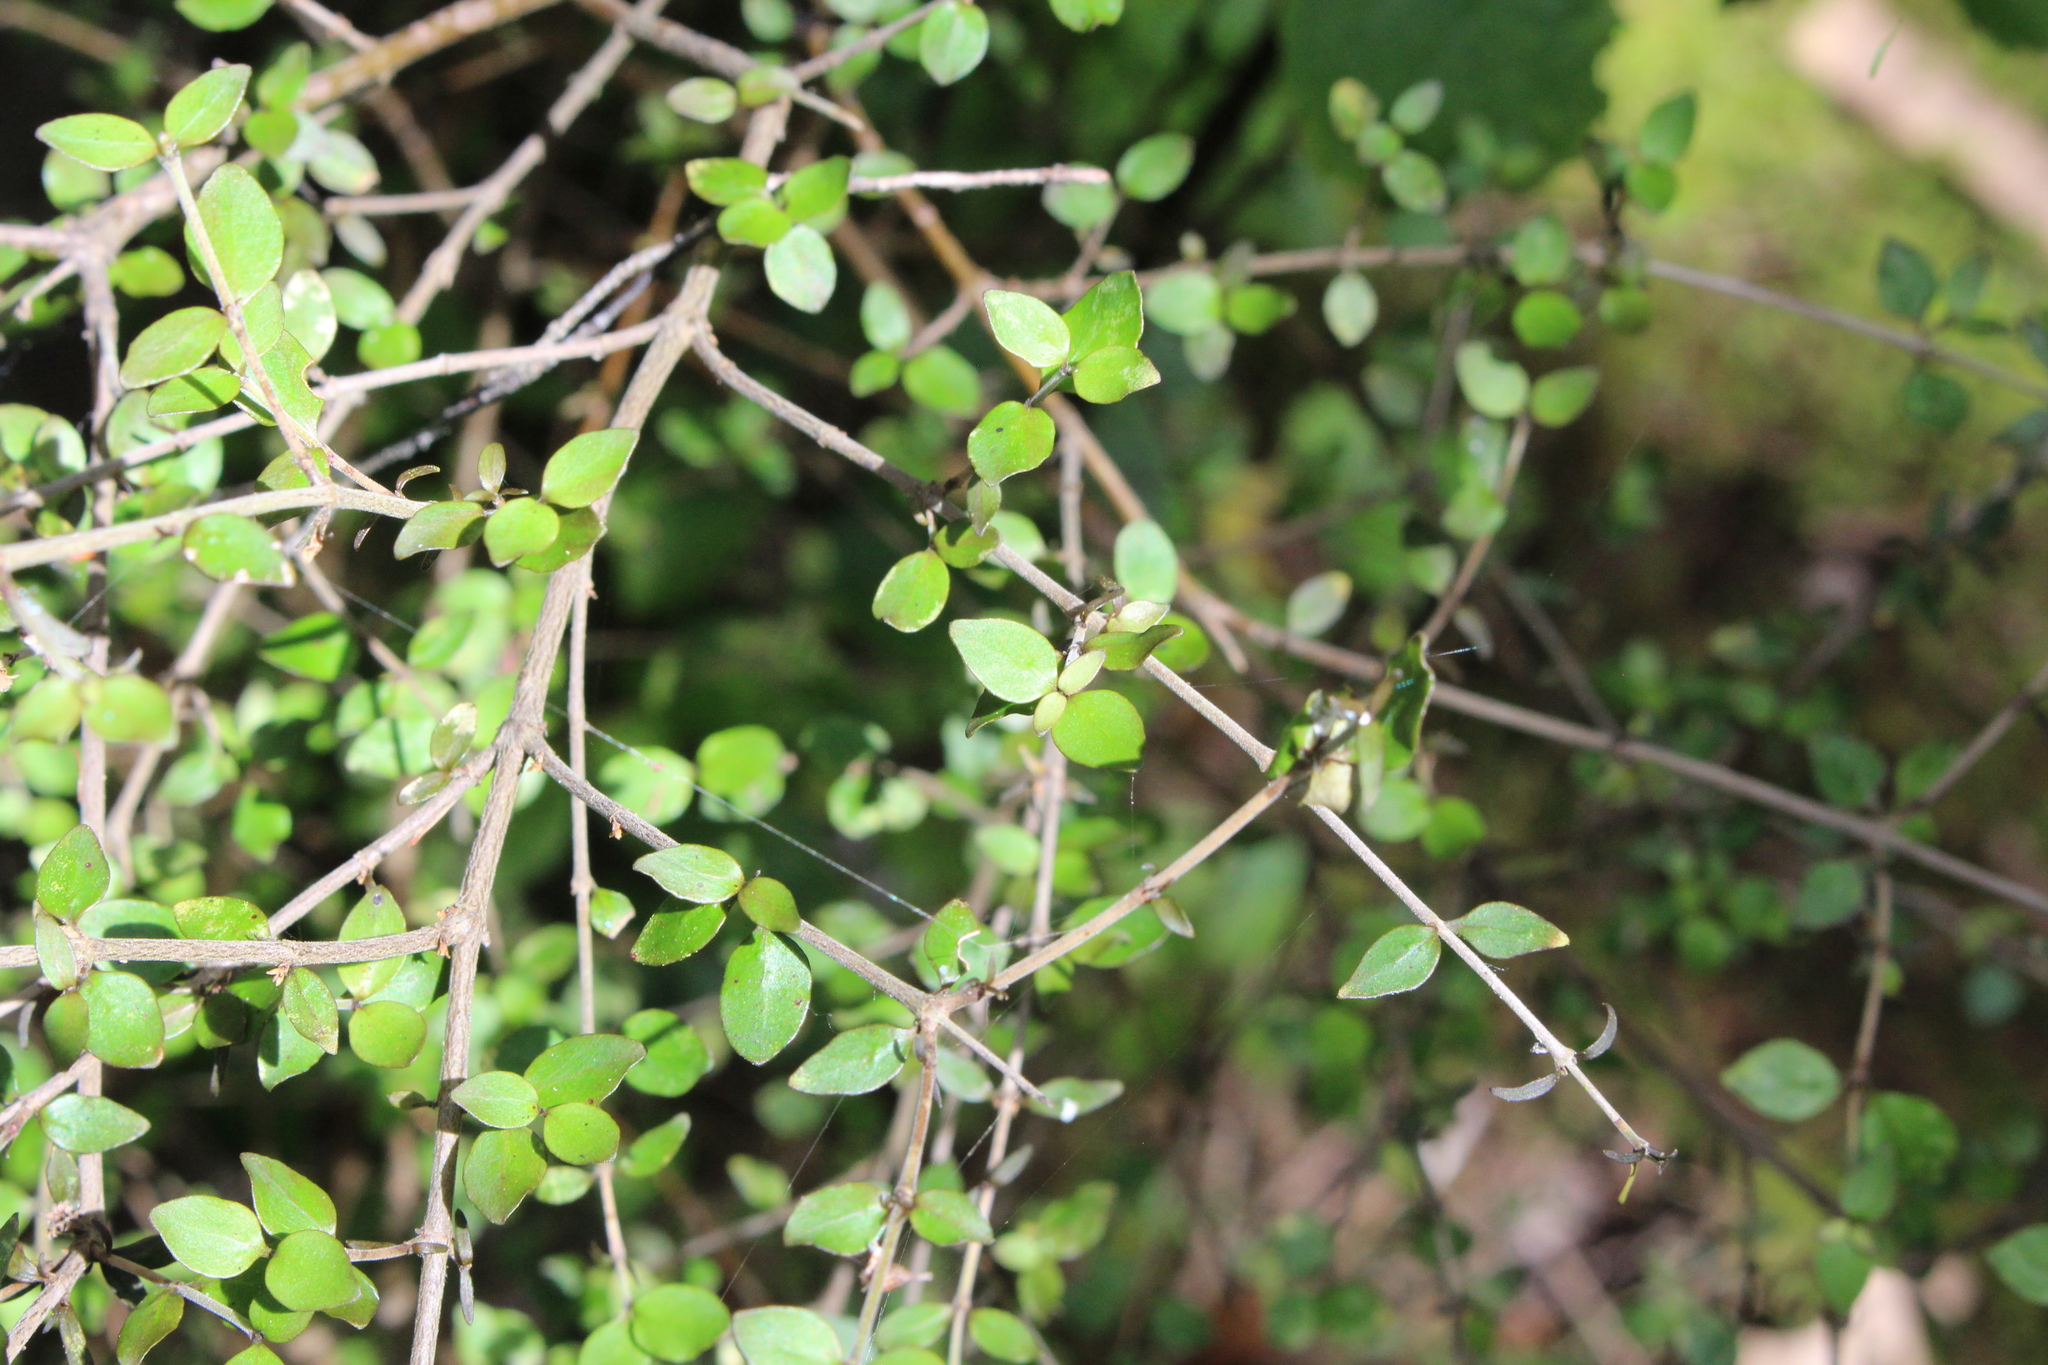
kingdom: Plantae
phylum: Tracheophyta
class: Magnoliopsida
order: Gentianales
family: Rubiaceae
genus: Coprosma
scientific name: Coprosma rhamnoides
